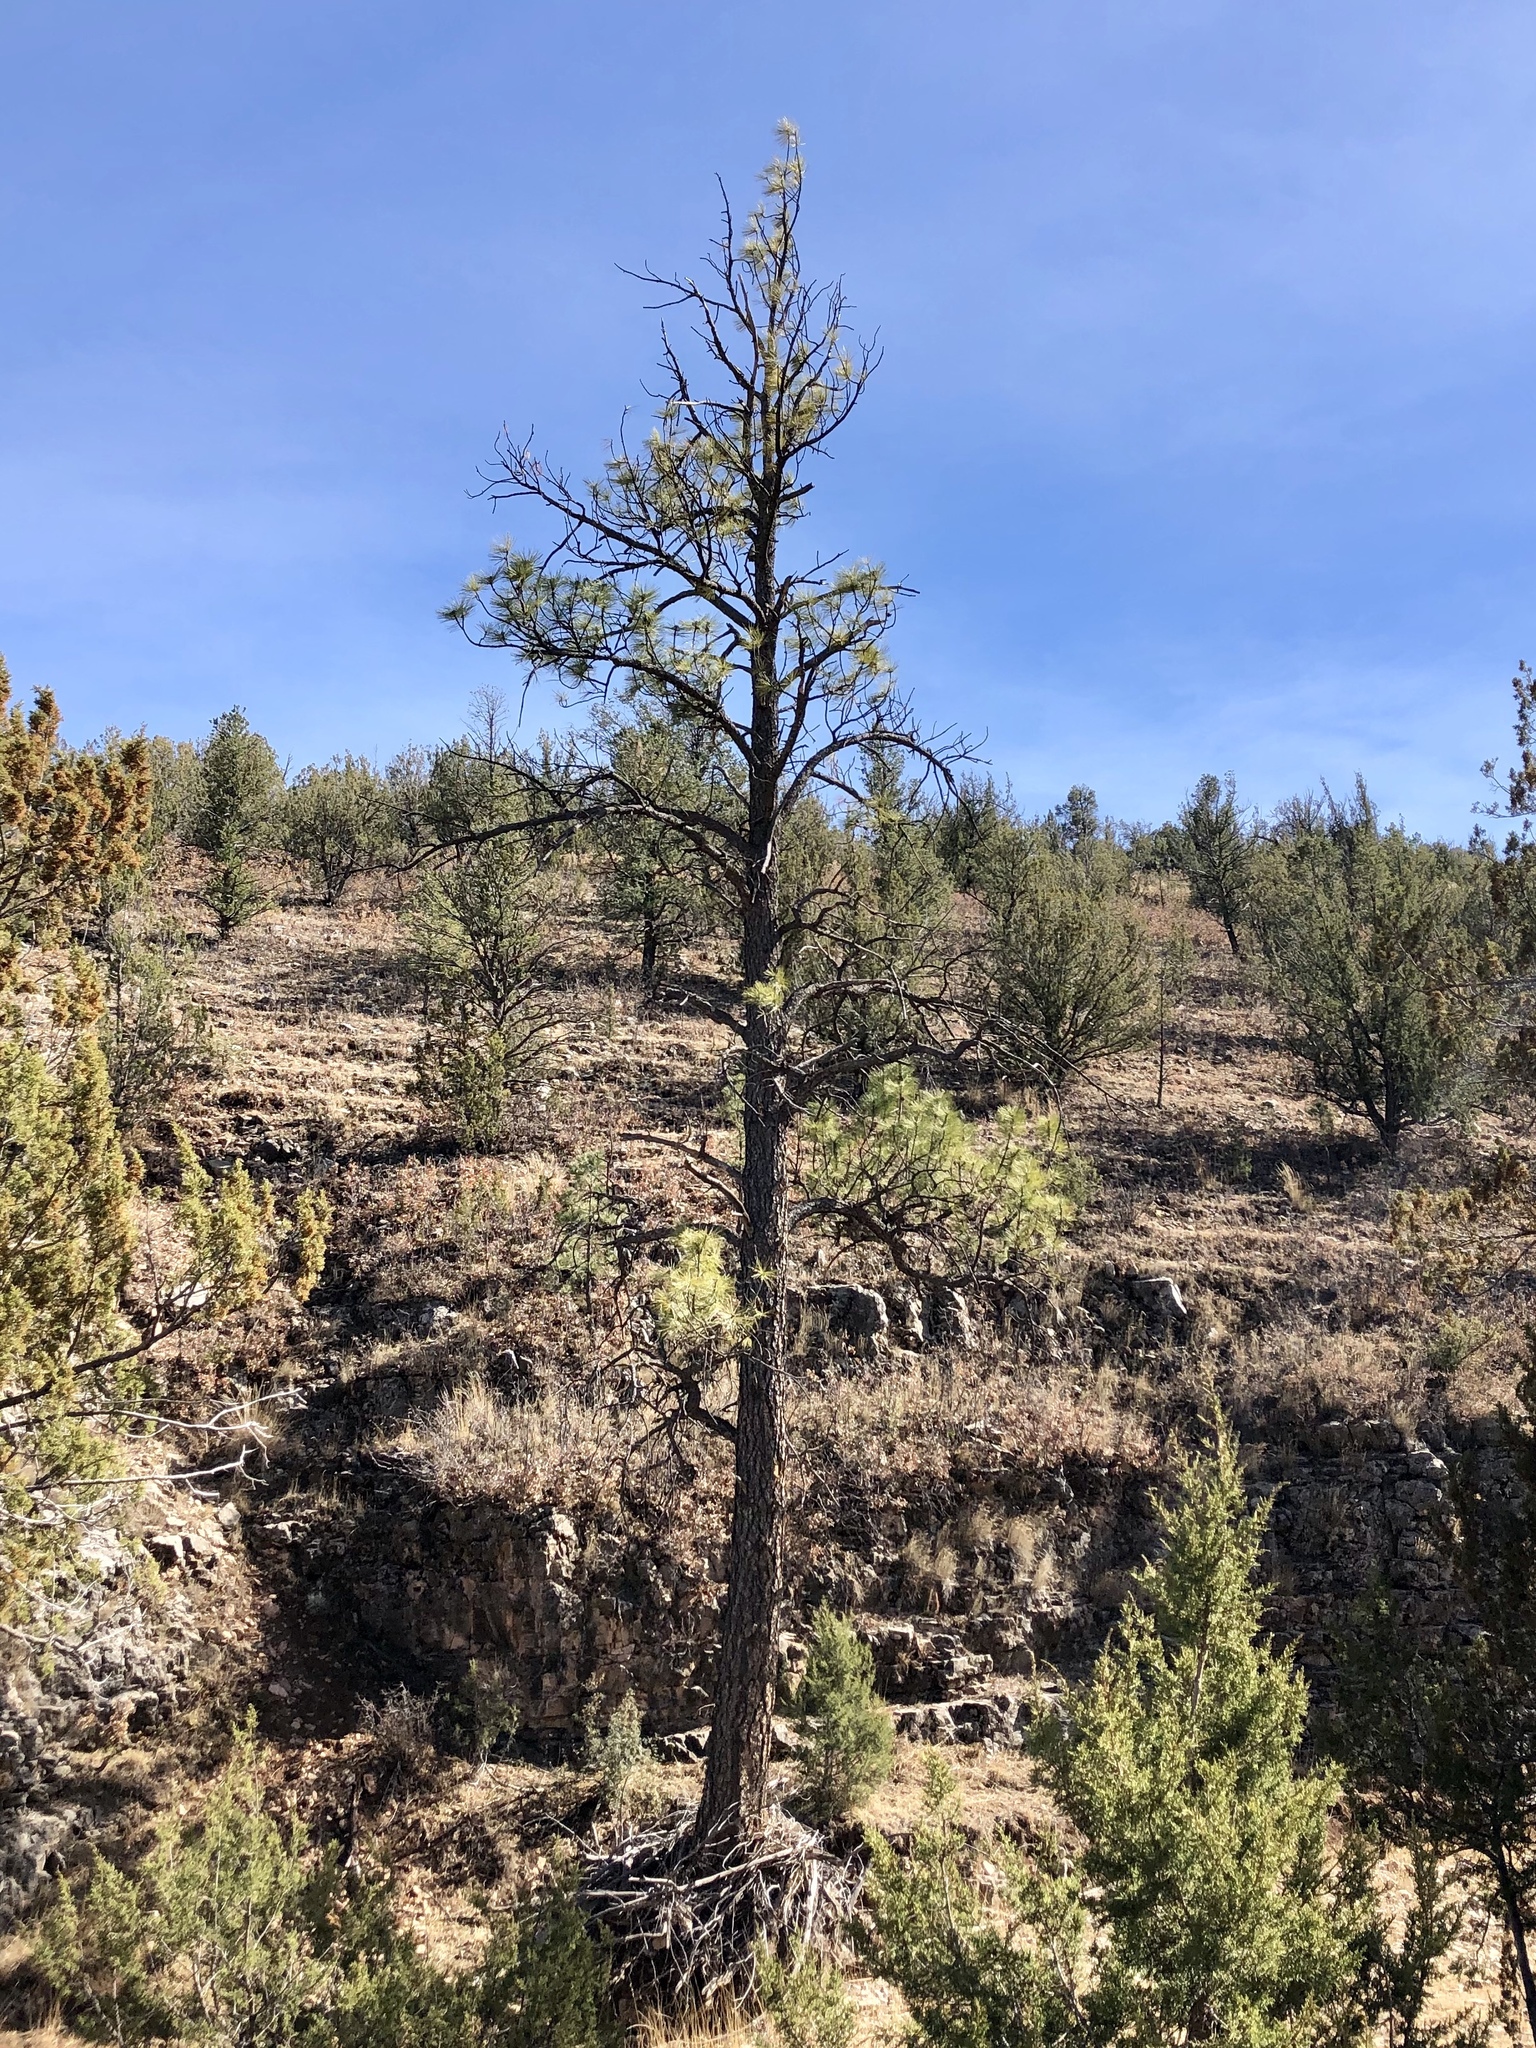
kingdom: Plantae
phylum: Tracheophyta
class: Pinopsida
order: Pinales
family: Pinaceae
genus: Pinus
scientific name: Pinus ponderosa
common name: Western yellow-pine
